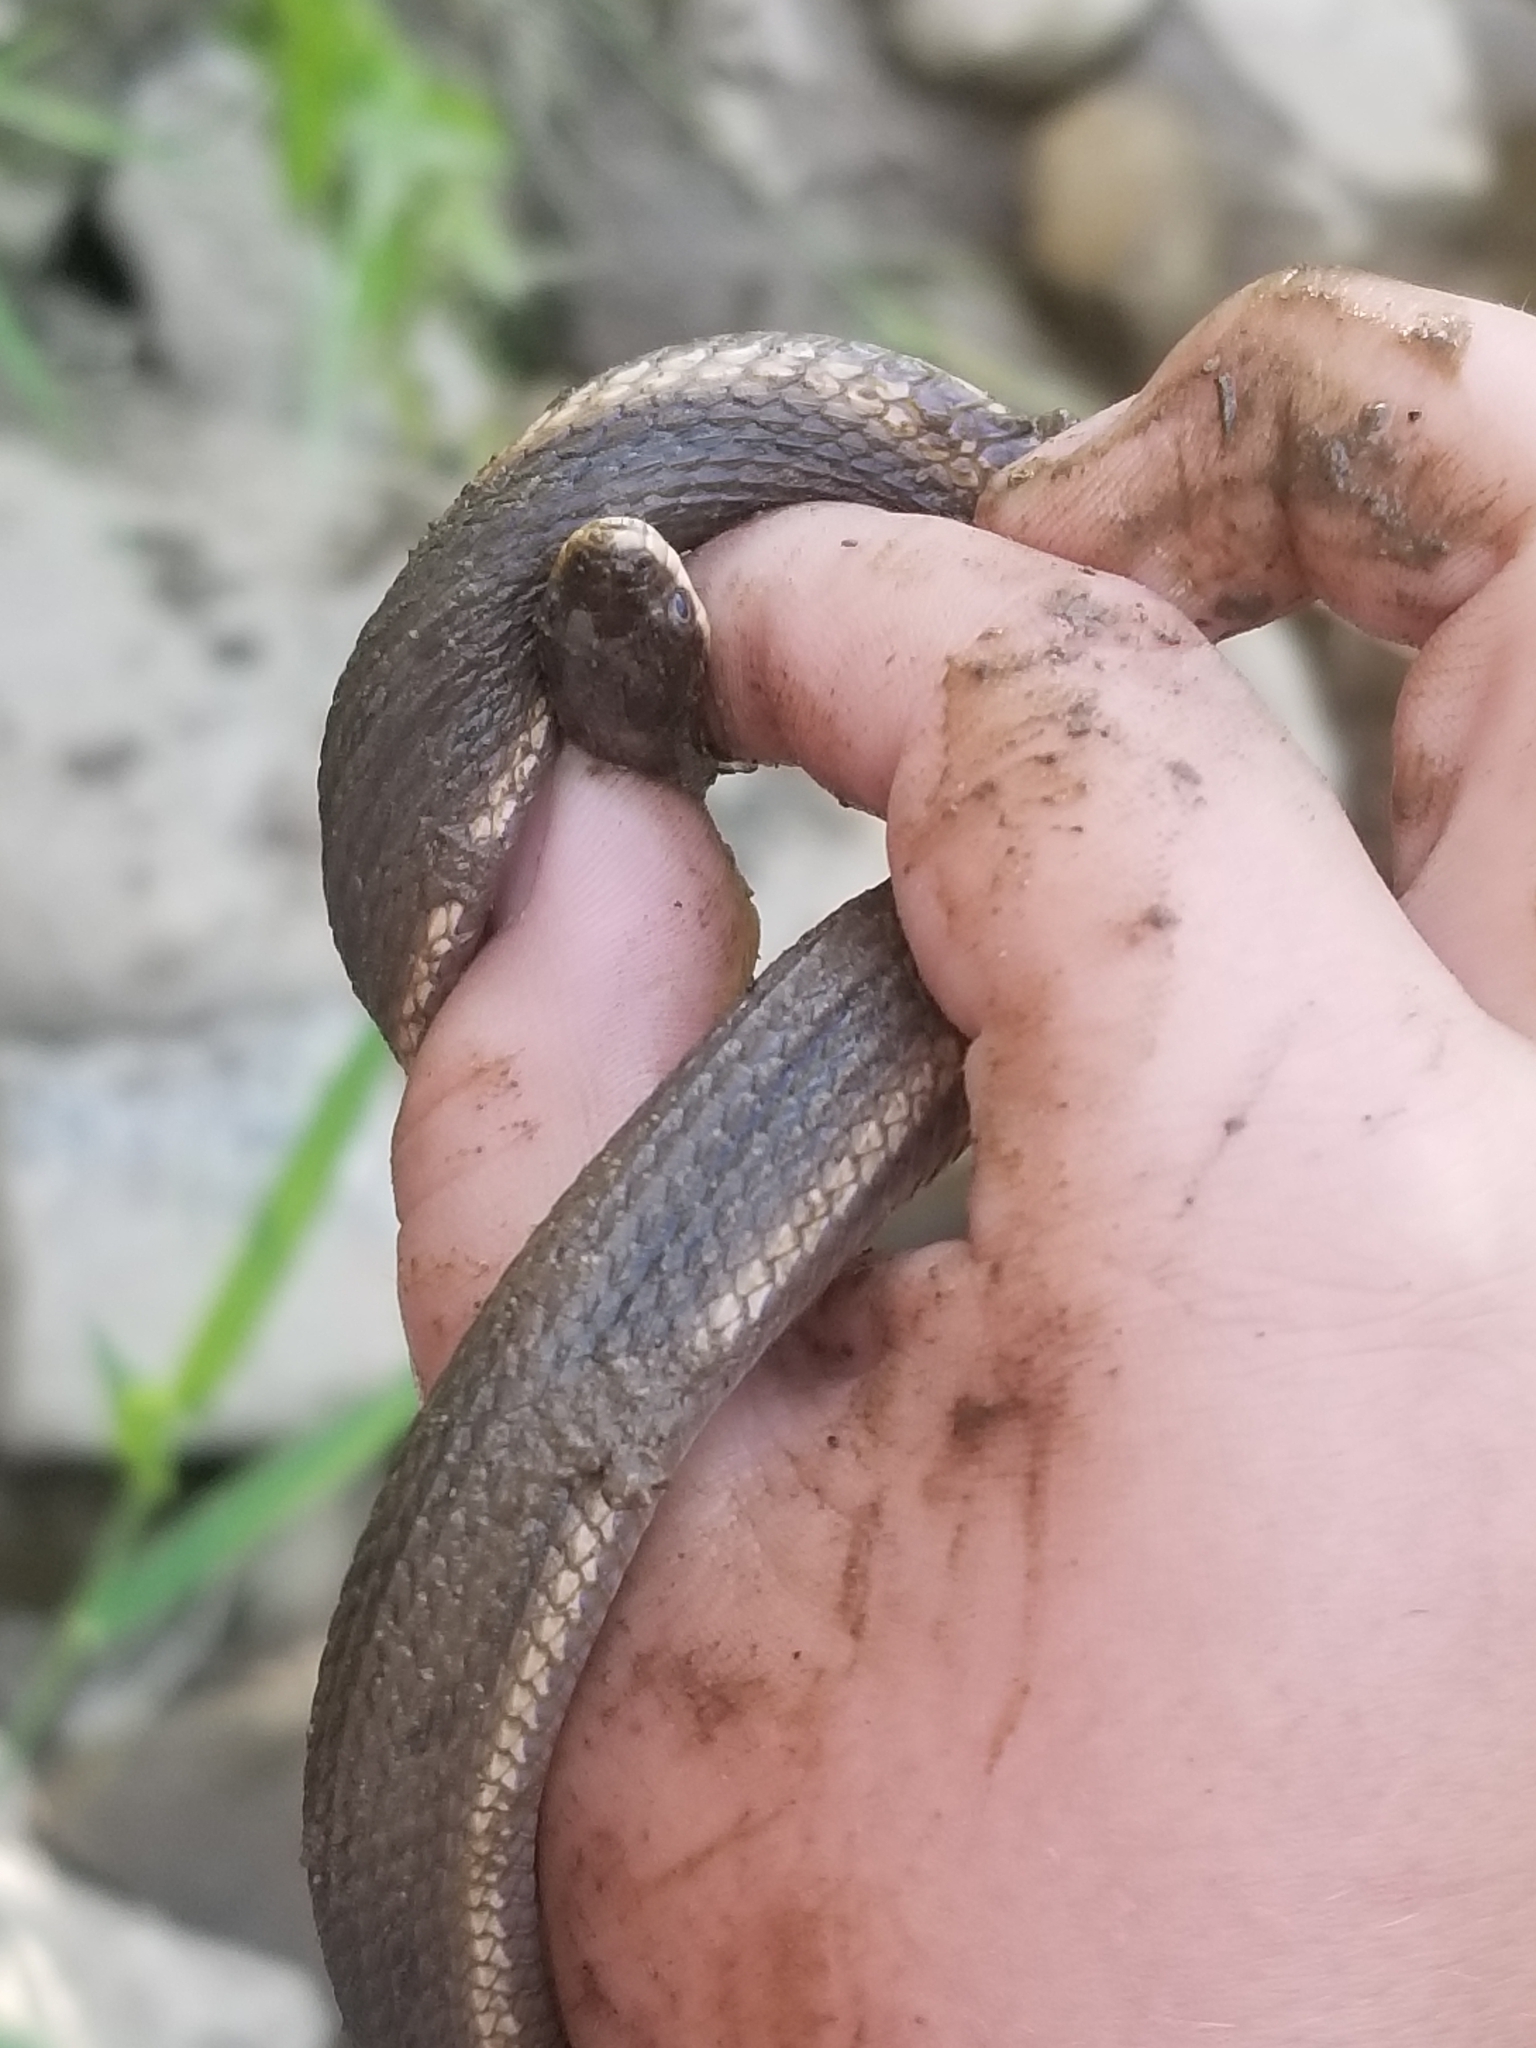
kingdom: Animalia
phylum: Chordata
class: Squamata
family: Colubridae
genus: Regina
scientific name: Regina septemvittata
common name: Queen snake
